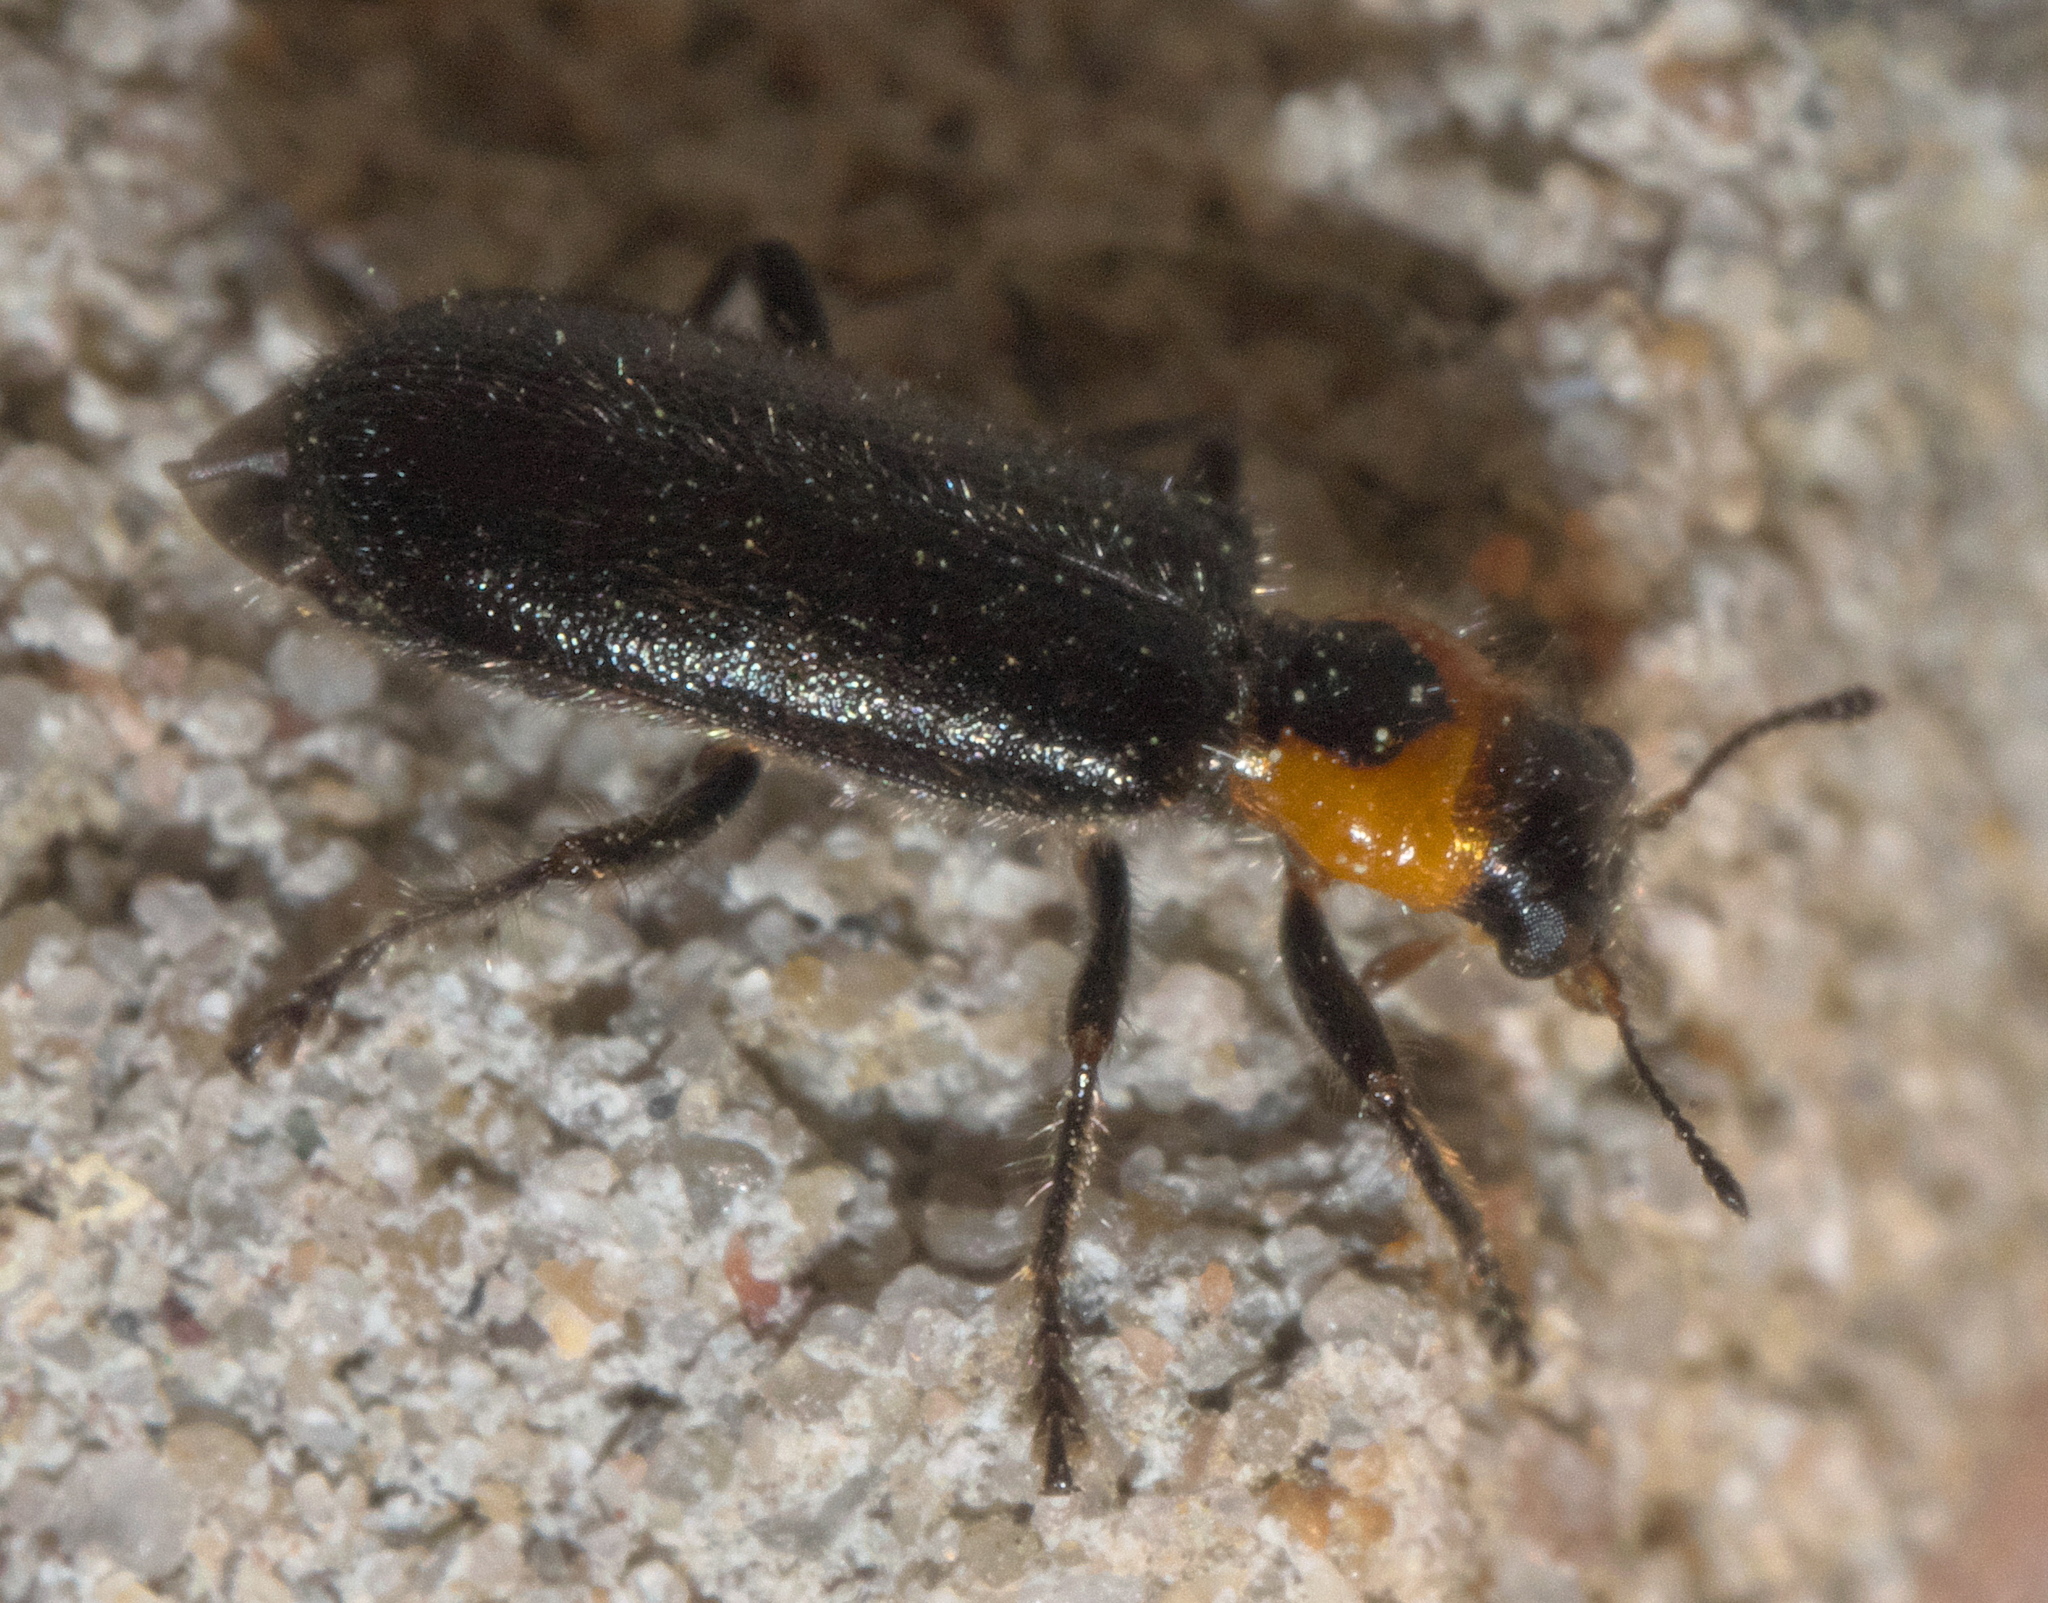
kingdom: Animalia
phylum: Arthropoda
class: Insecta
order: Coleoptera
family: Cleridae
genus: Placopterus
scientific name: Placopterus thoracicus
